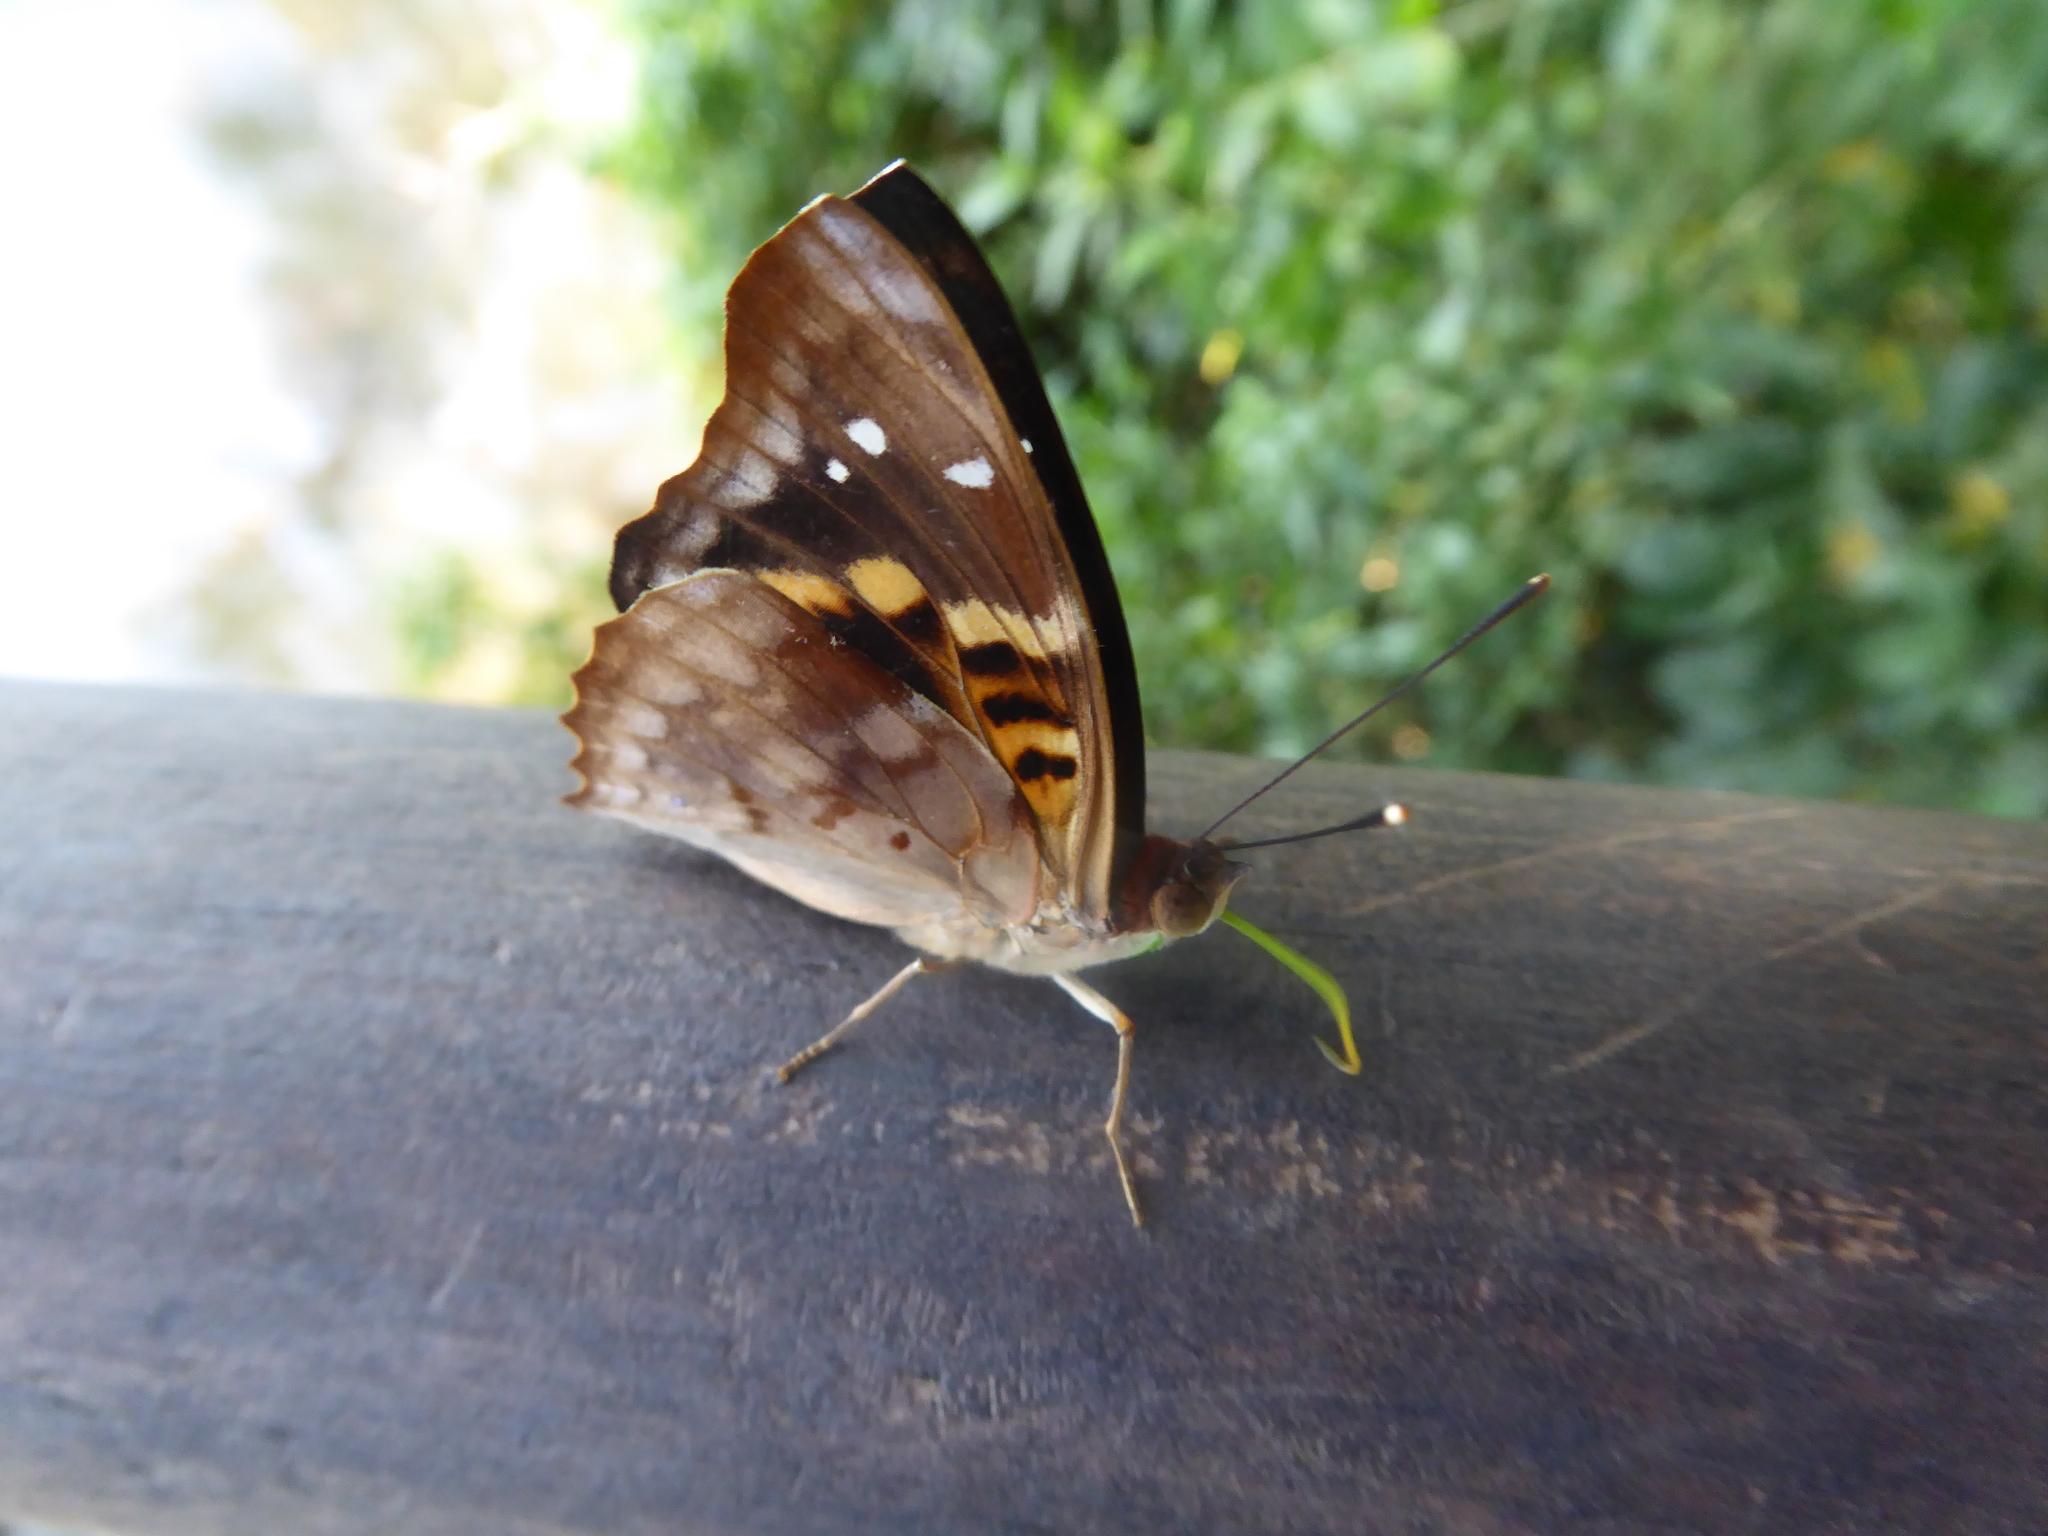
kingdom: Animalia
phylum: Arthropoda
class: Insecta
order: Lepidoptera
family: Nymphalidae
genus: Doxocopa
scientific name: Doxocopa agathina
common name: Agathina emperor
